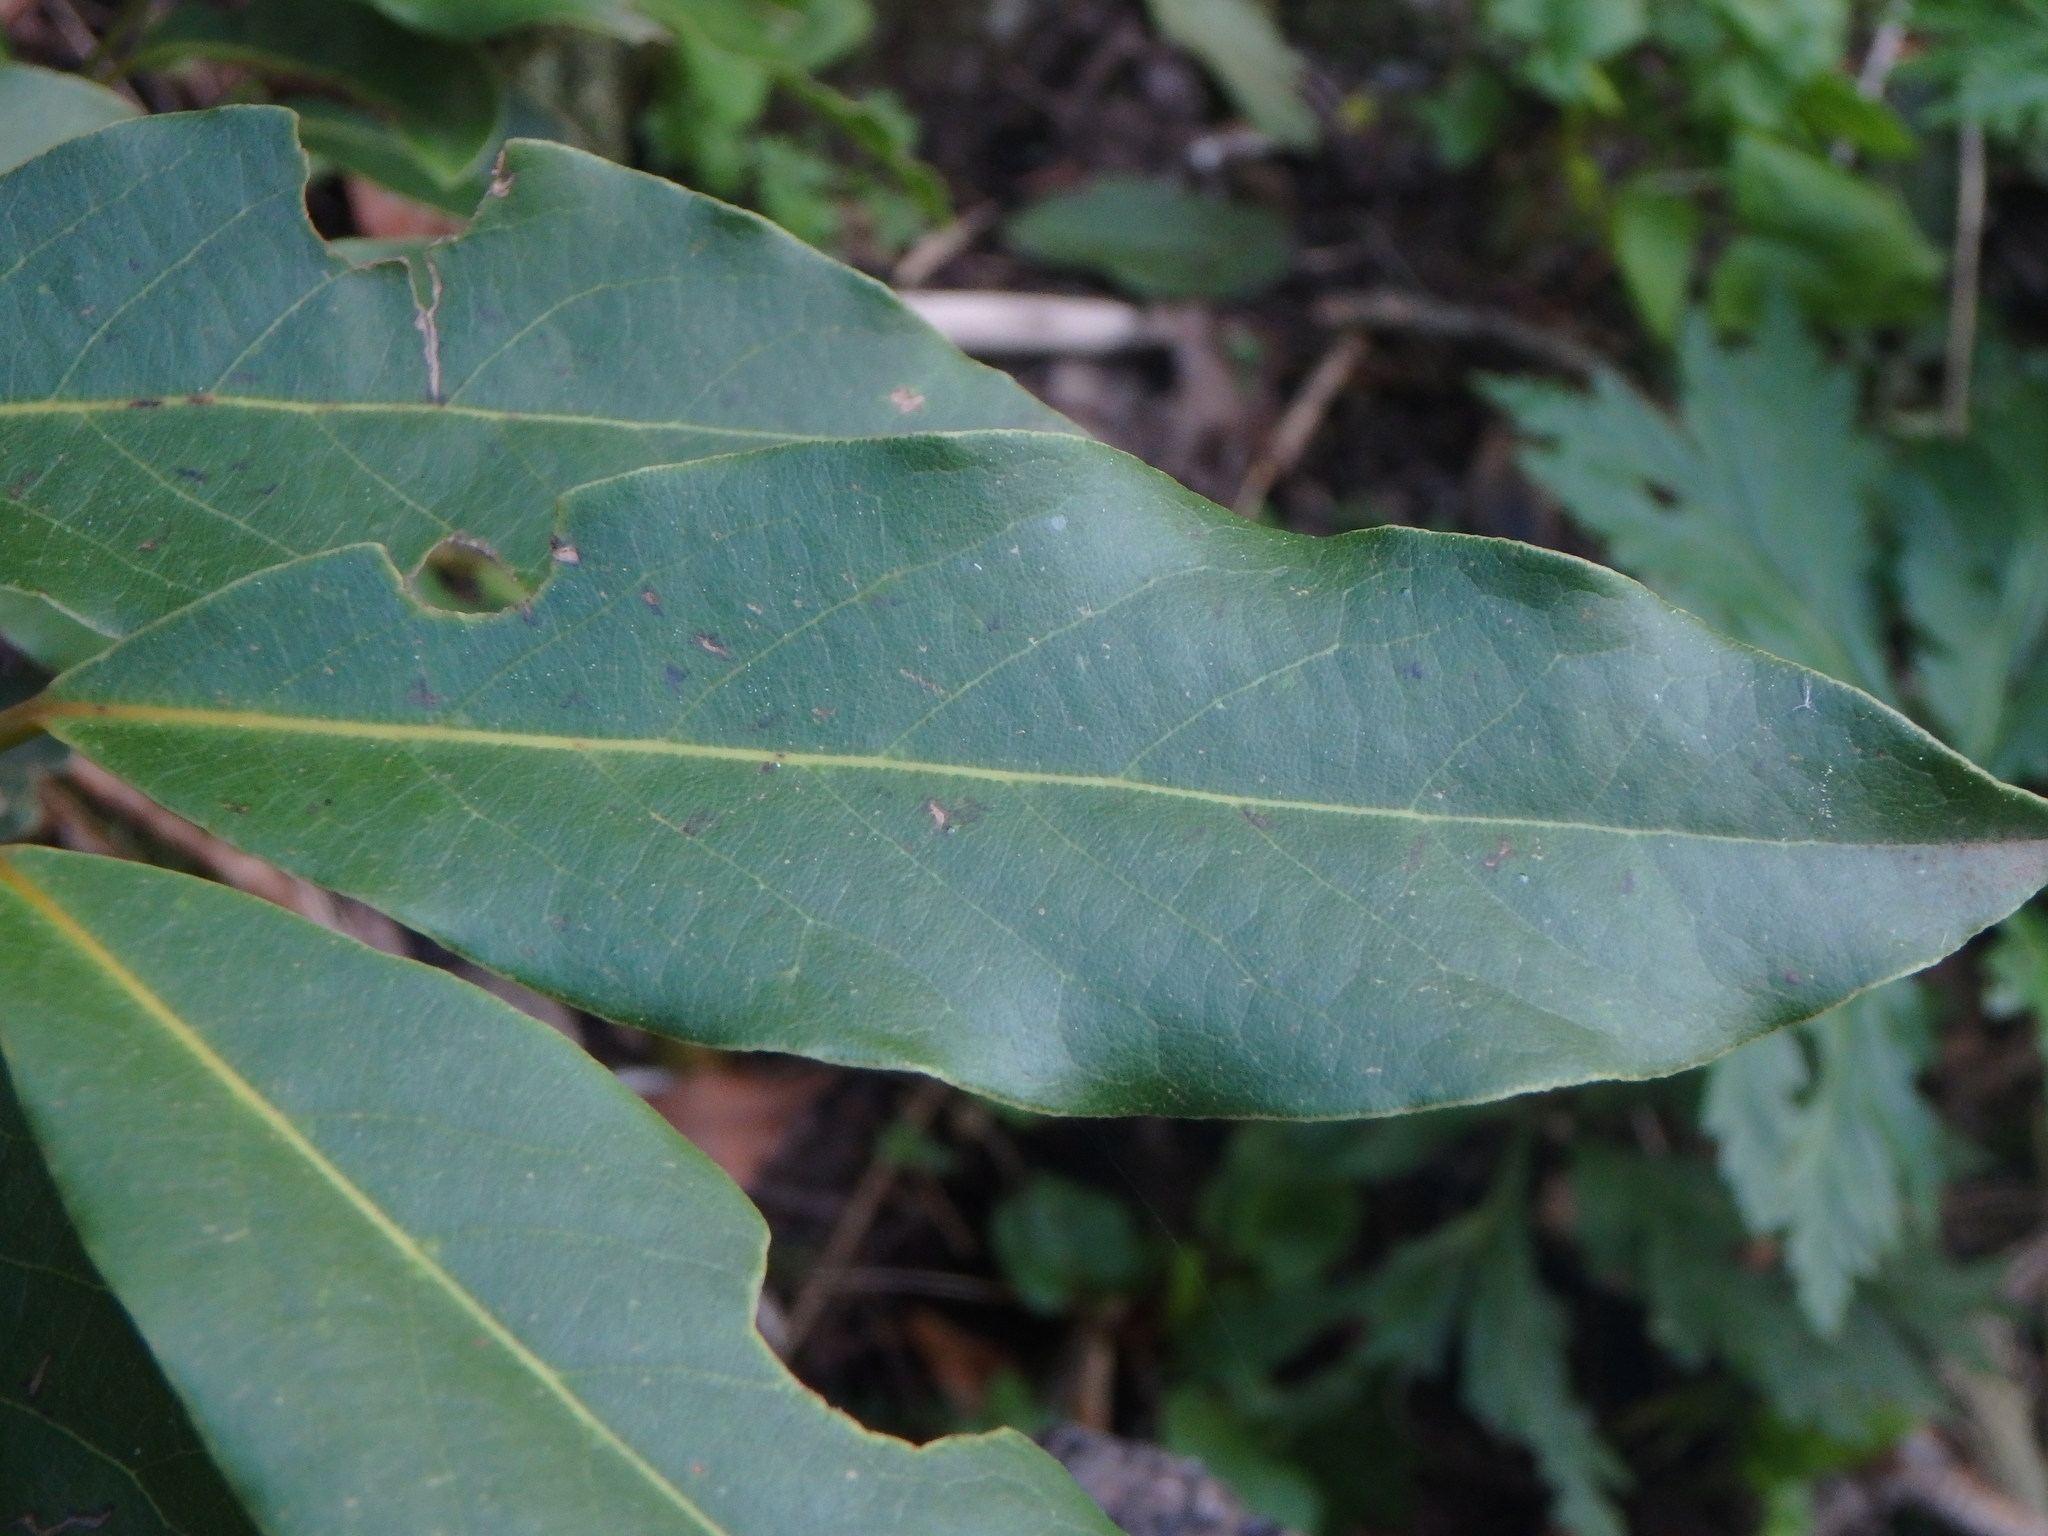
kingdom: Plantae
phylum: Tracheophyta
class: Magnoliopsida
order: Laurales
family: Lauraceae
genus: Laurus
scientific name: Laurus novocanariensis
